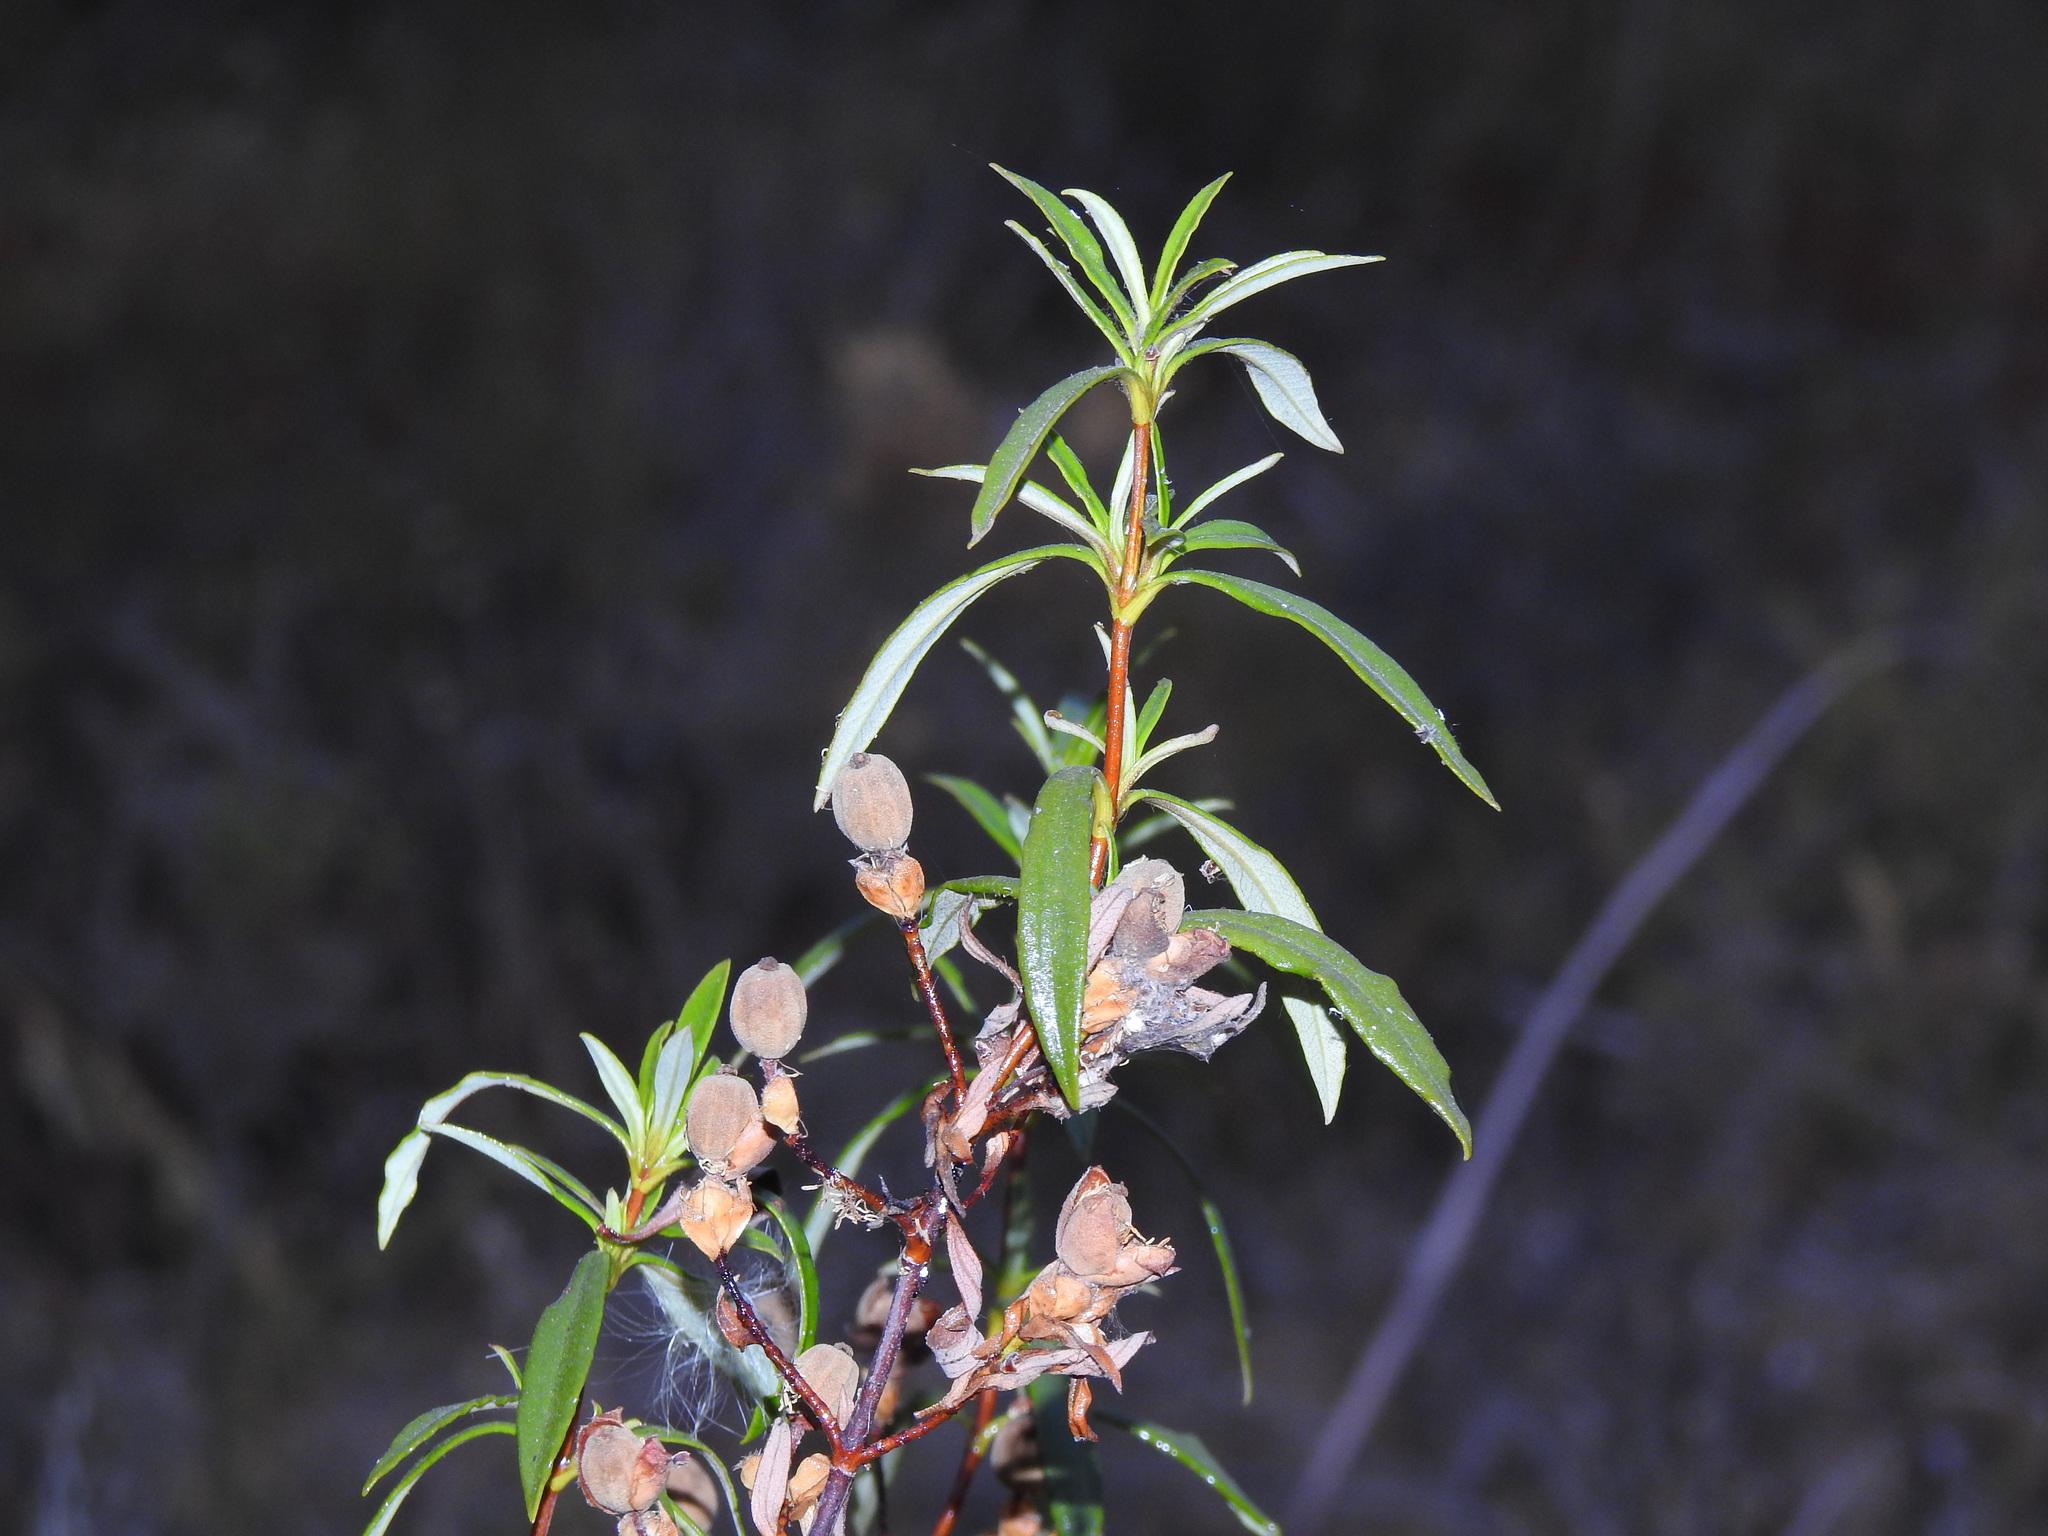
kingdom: Plantae
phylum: Tracheophyta
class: Magnoliopsida
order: Malvales
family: Cistaceae
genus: Cistus
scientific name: Cistus ladanifer
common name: Common gum cistus
